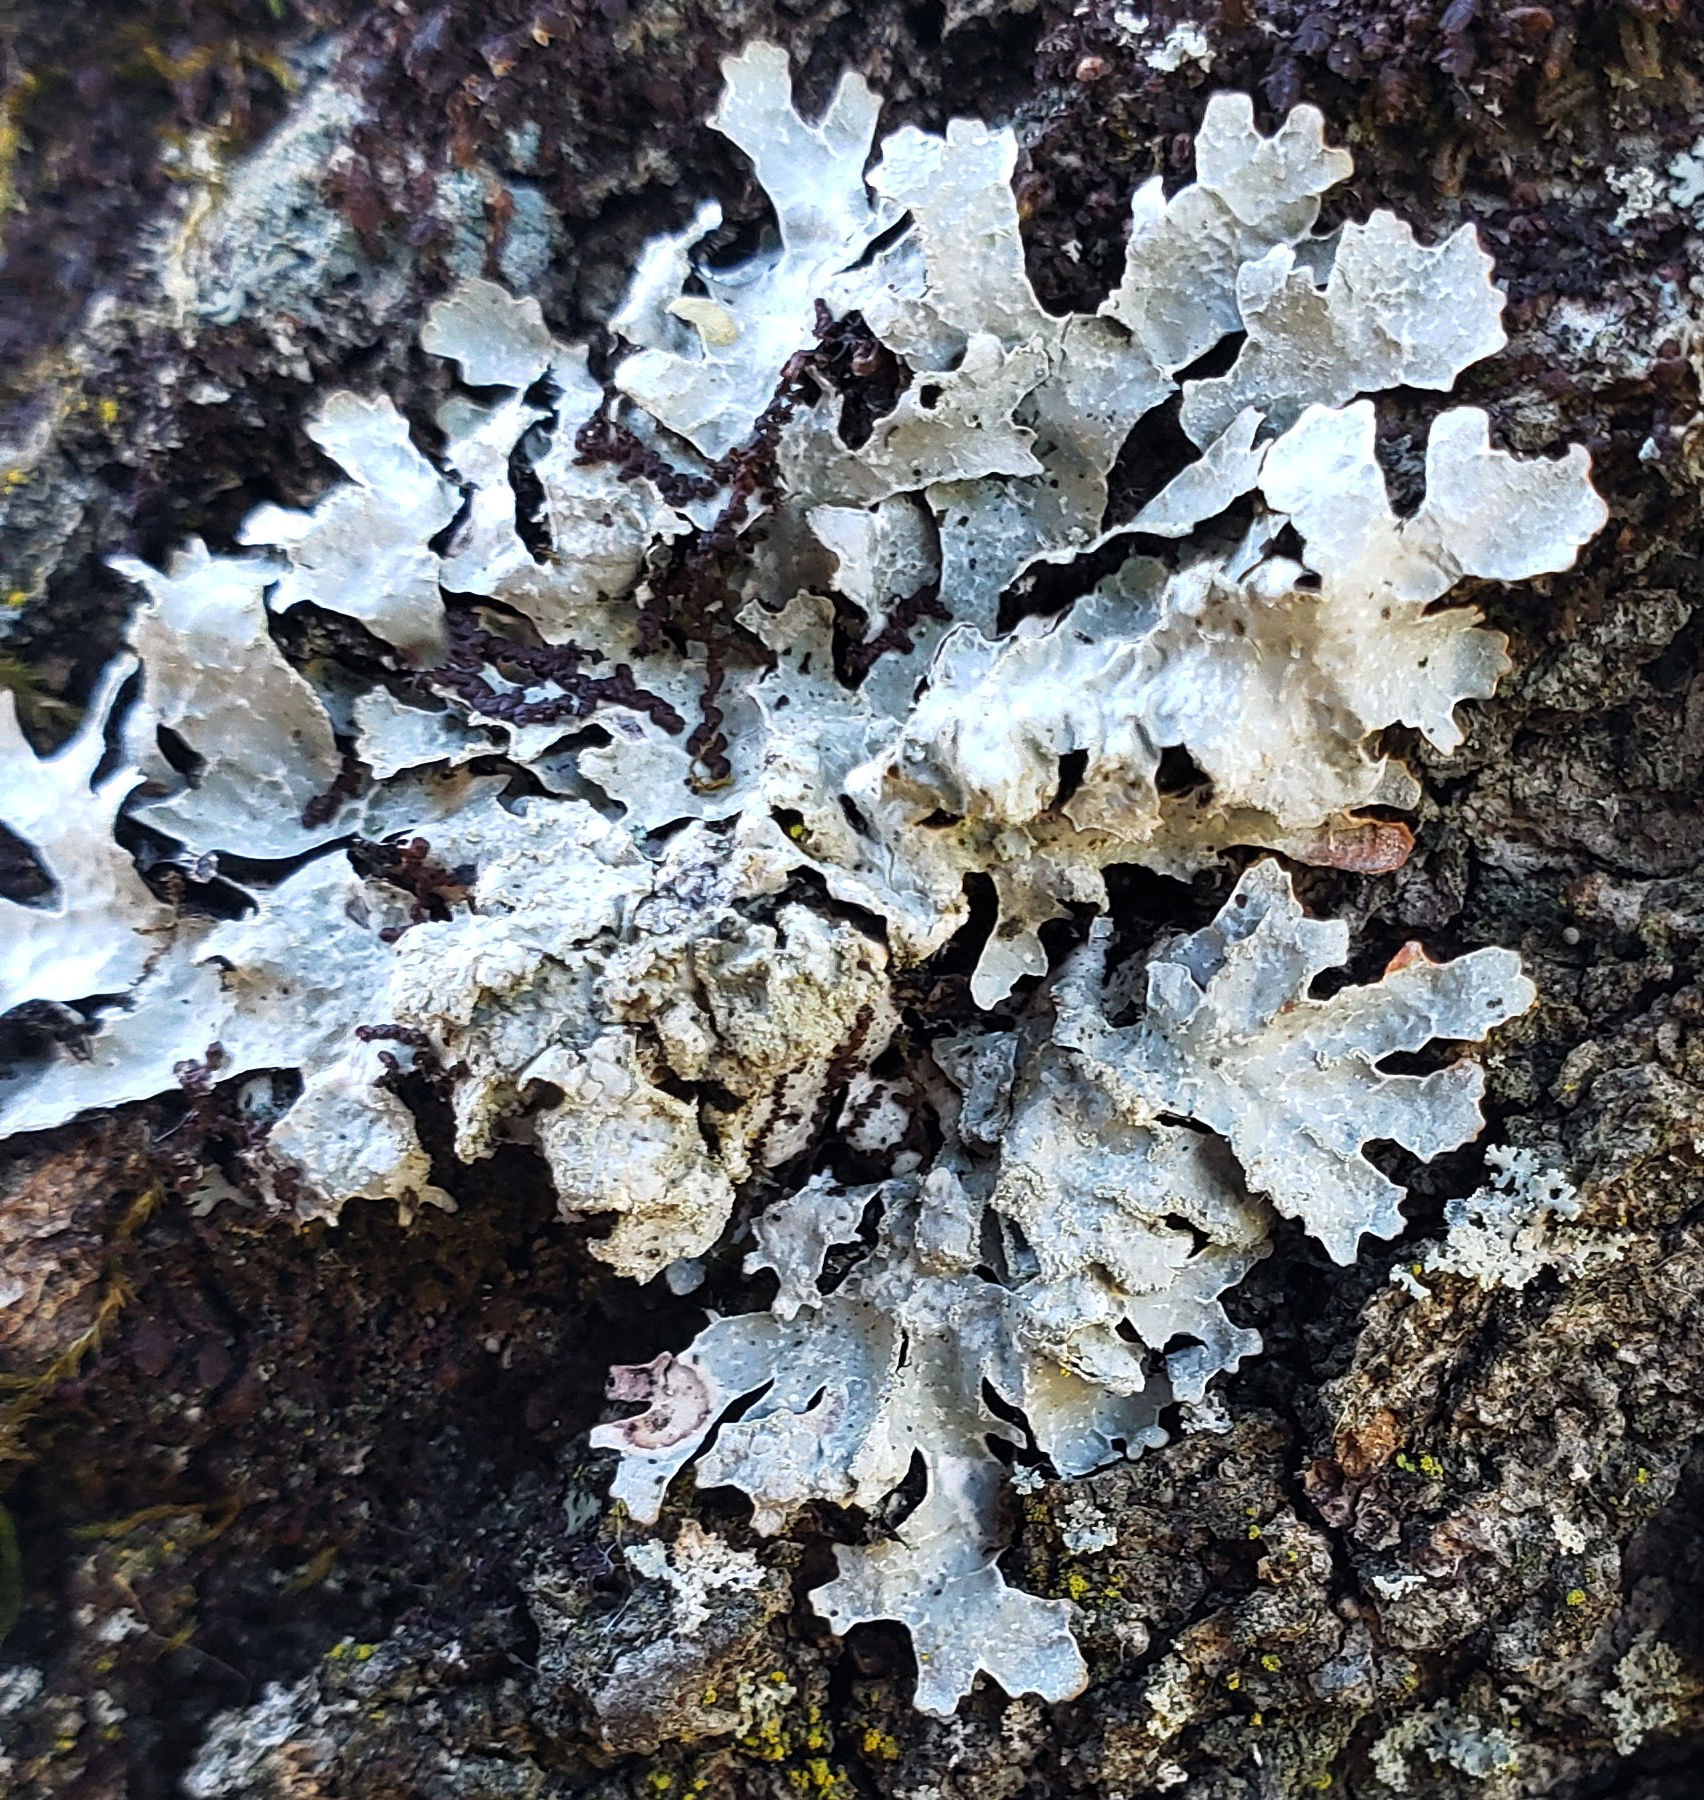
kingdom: Fungi
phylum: Ascomycota
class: Lecanoromycetes
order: Lecanorales
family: Parmeliaceae
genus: Parmelia
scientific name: Parmelia sulcata
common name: Netted shield lichen
